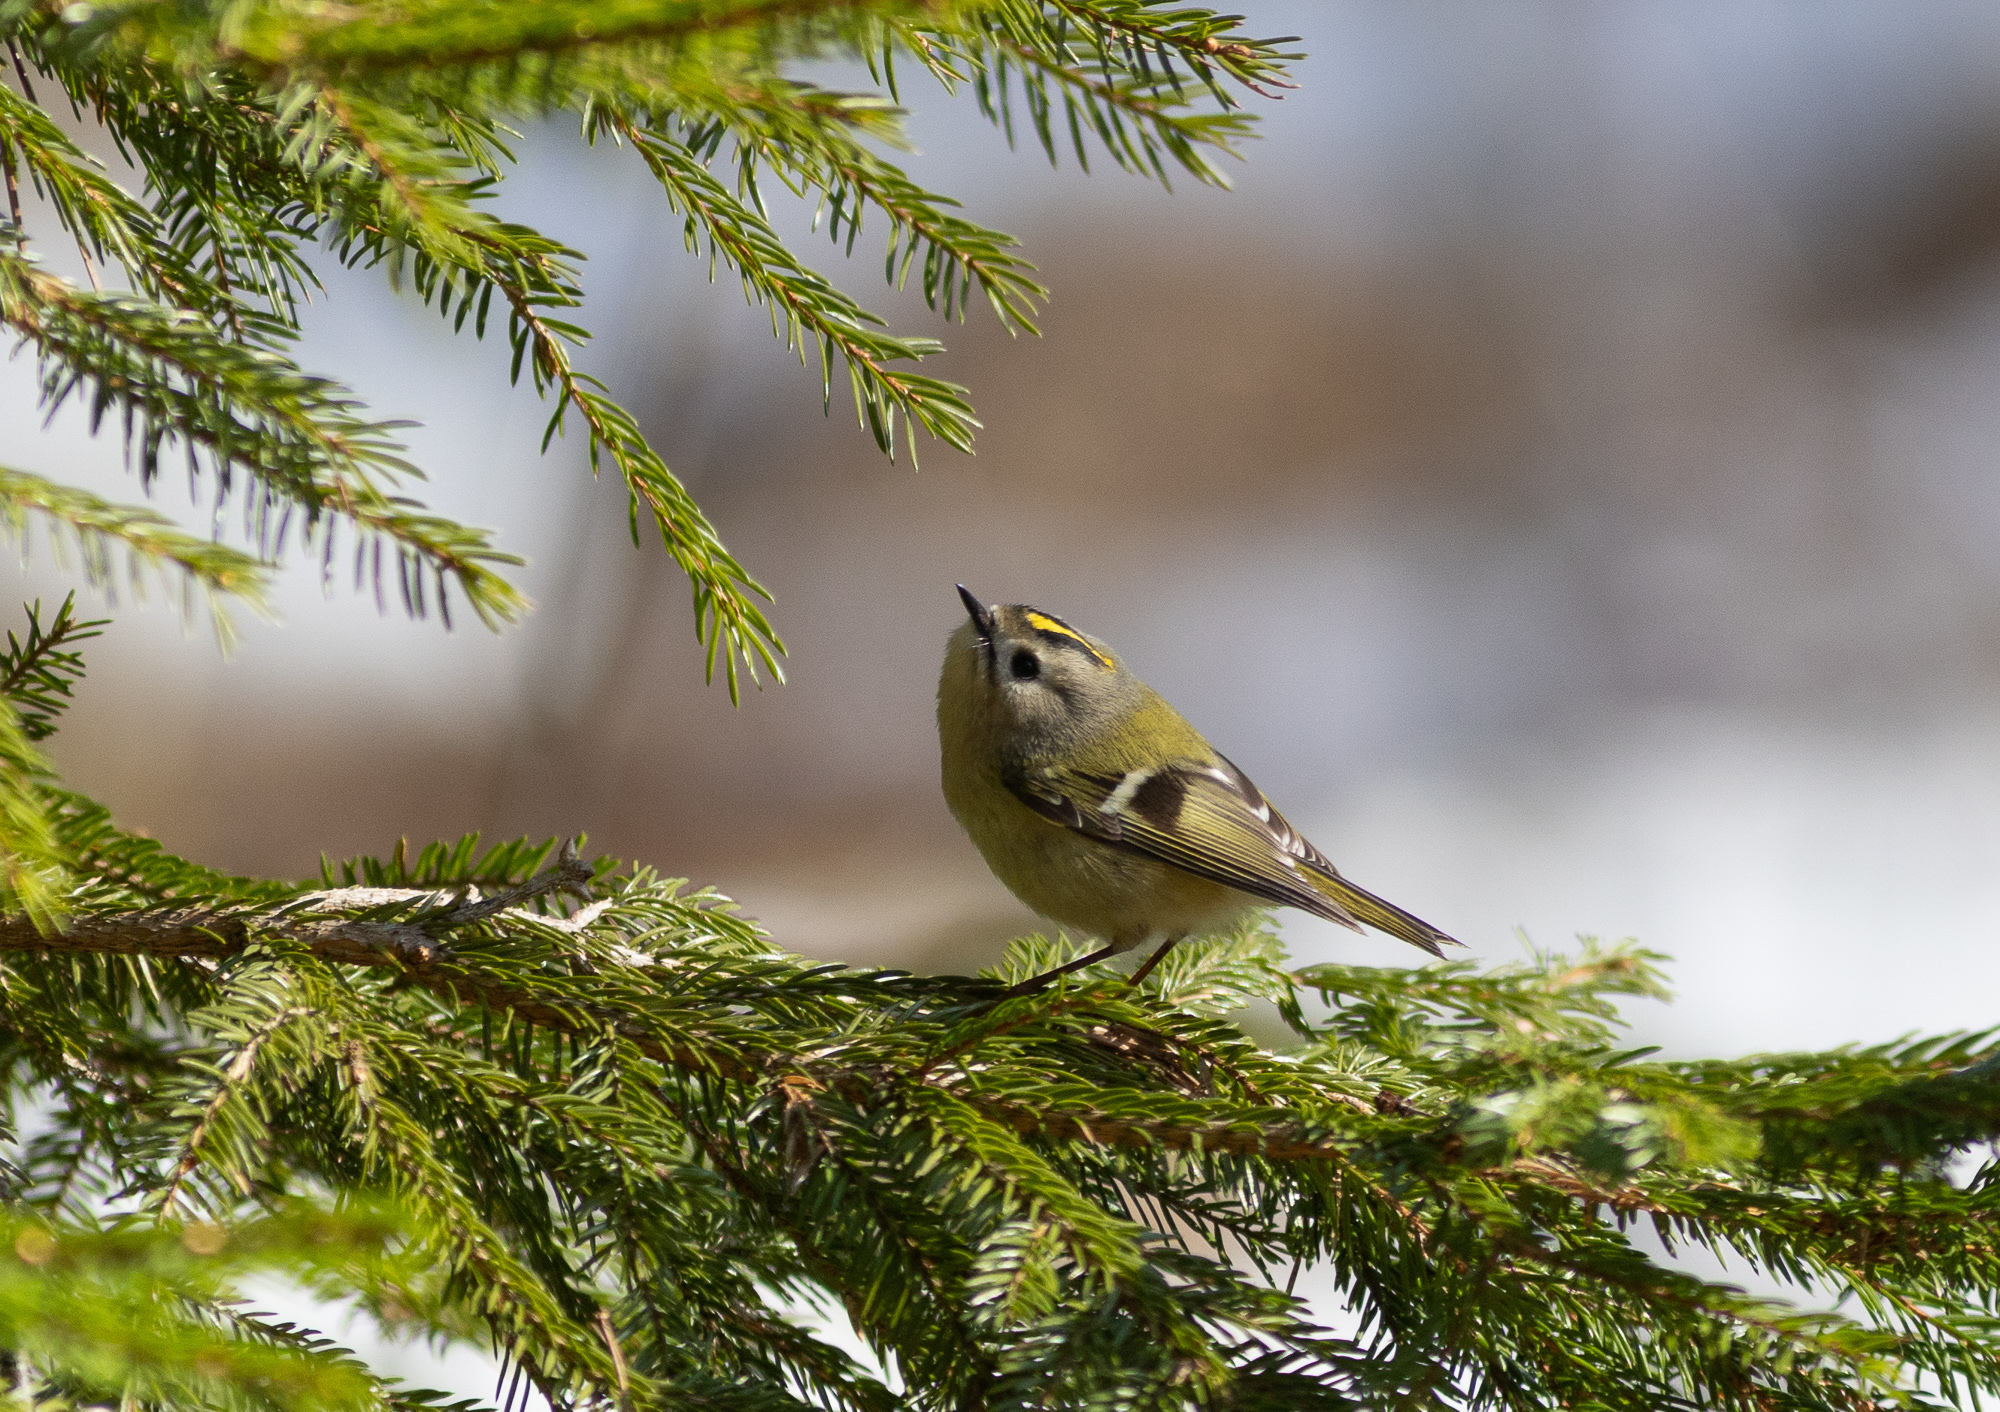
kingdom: Animalia
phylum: Chordata
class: Aves
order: Passeriformes
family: Regulidae
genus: Regulus
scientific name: Regulus regulus
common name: Goldcrest
